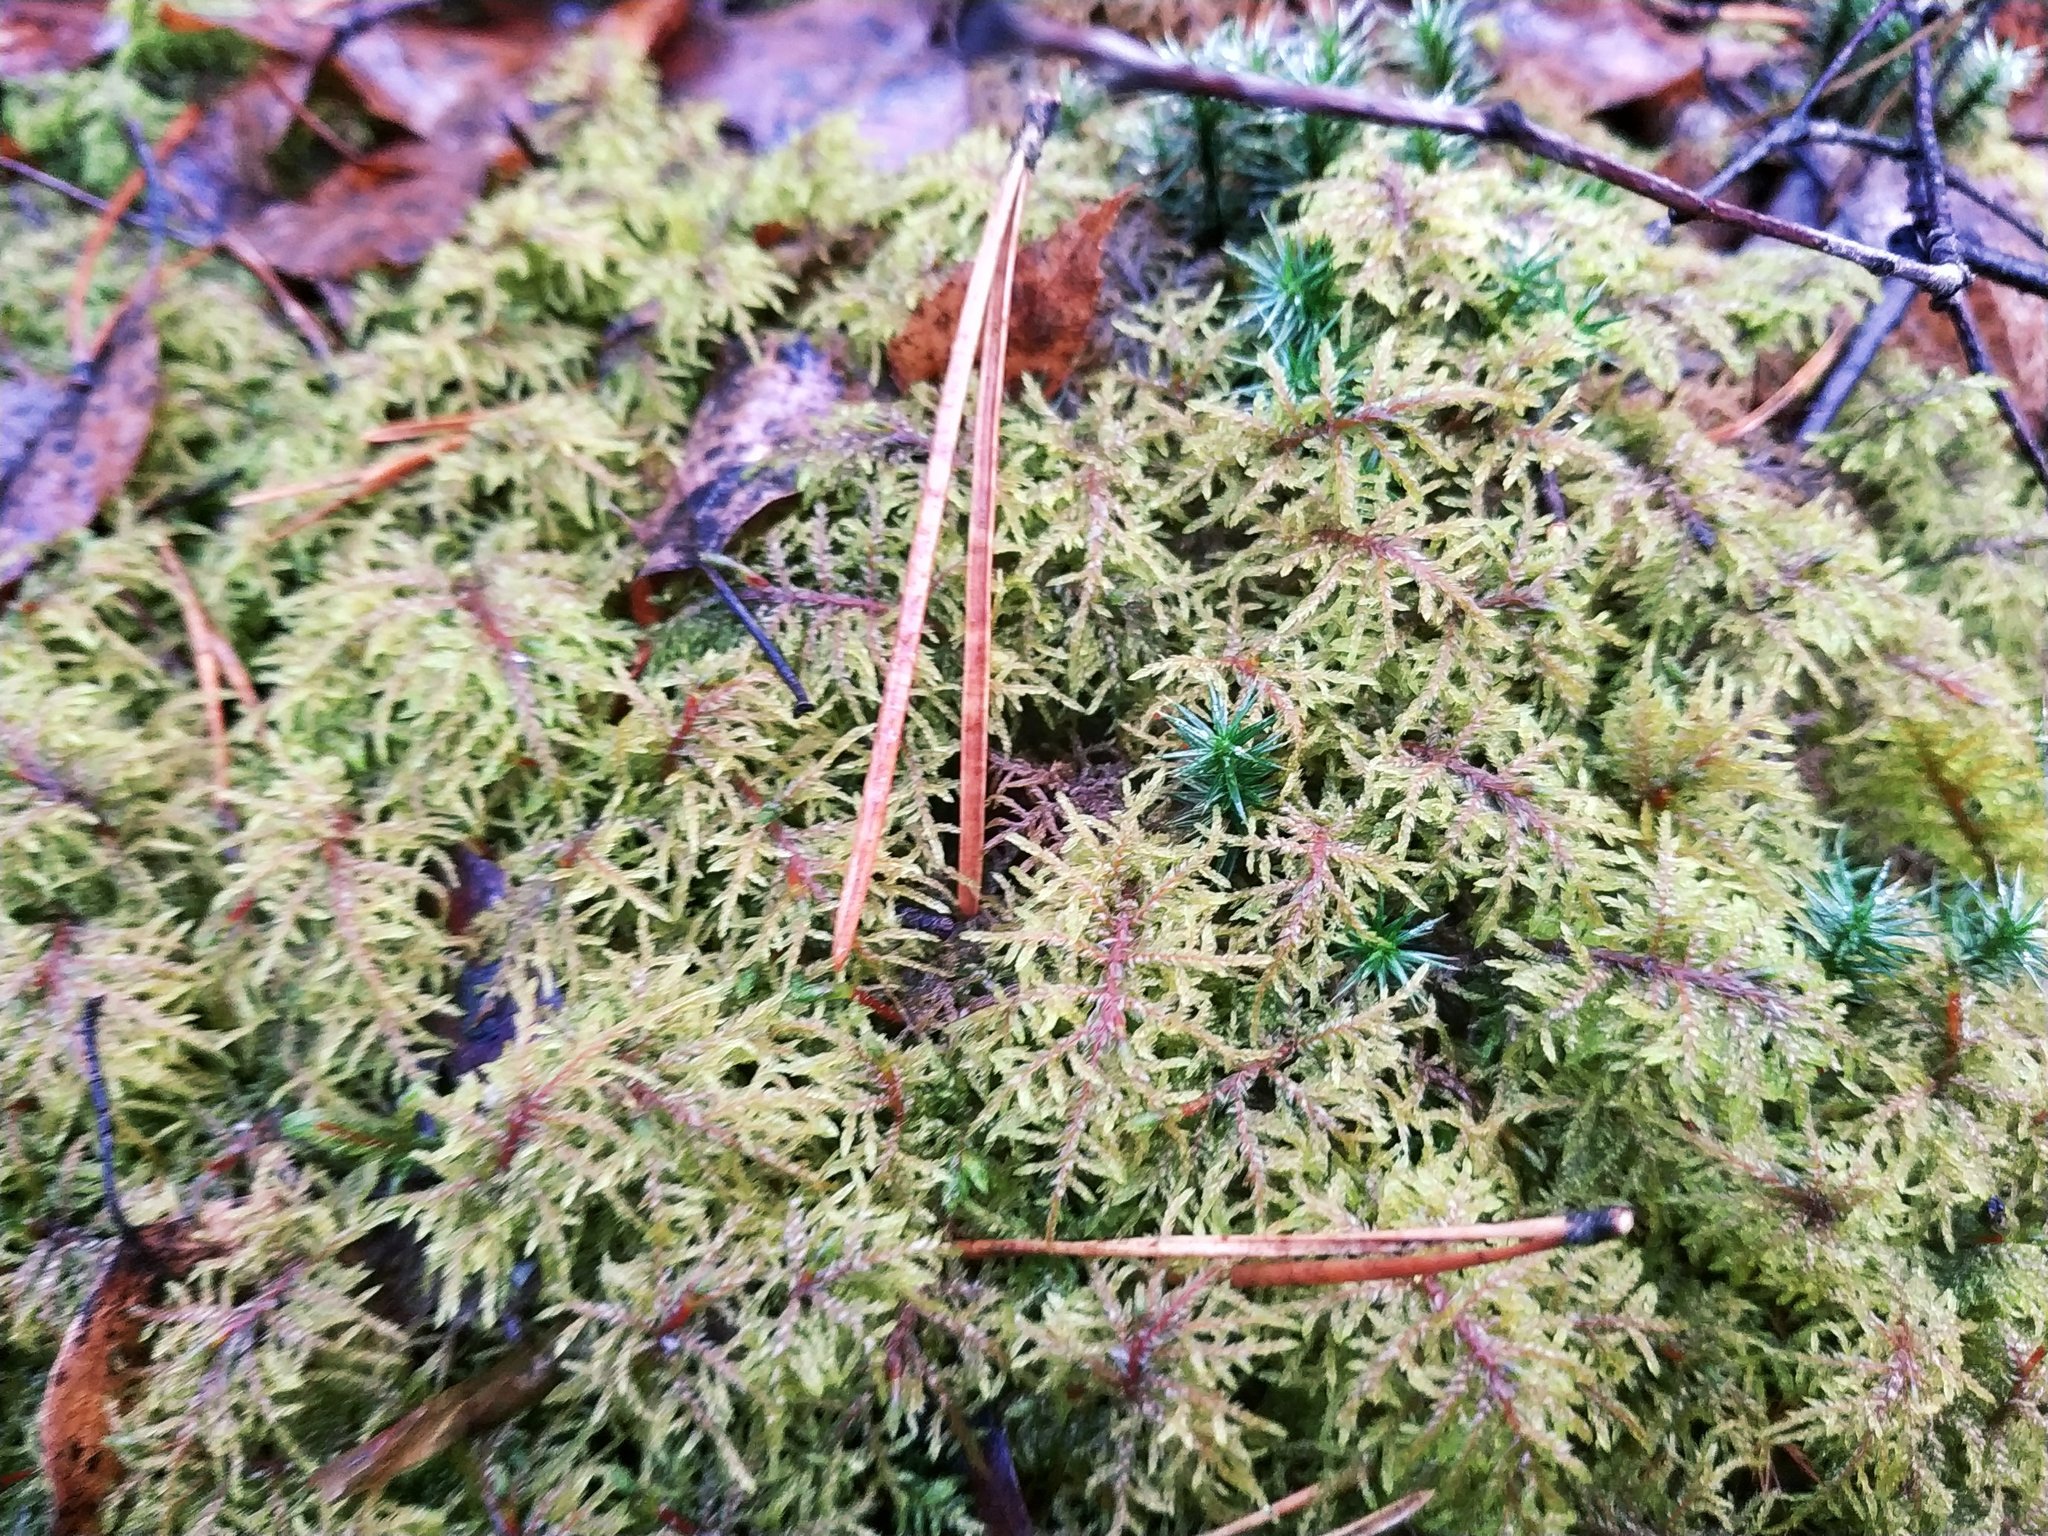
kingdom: Plantae
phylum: Bryophyta
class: Bryopsida
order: Hypnales
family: Hylocomiaceae
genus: Hylocomium
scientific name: Hylocomium splendens
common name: Stairstep moss
